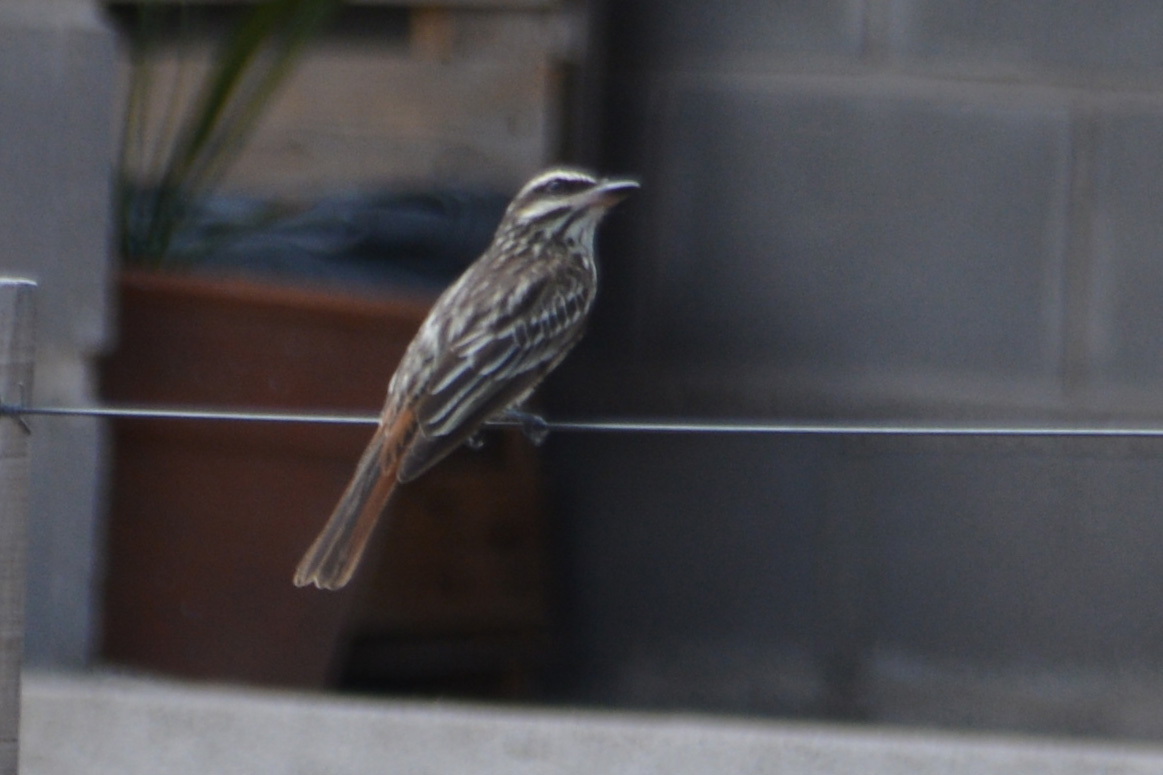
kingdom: Animalia
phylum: Chordata
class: Aves
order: Passeriformes
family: Tyrannidae
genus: Myiodynastes
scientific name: Myiodynastes maculatus
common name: Streaked flycatcher
